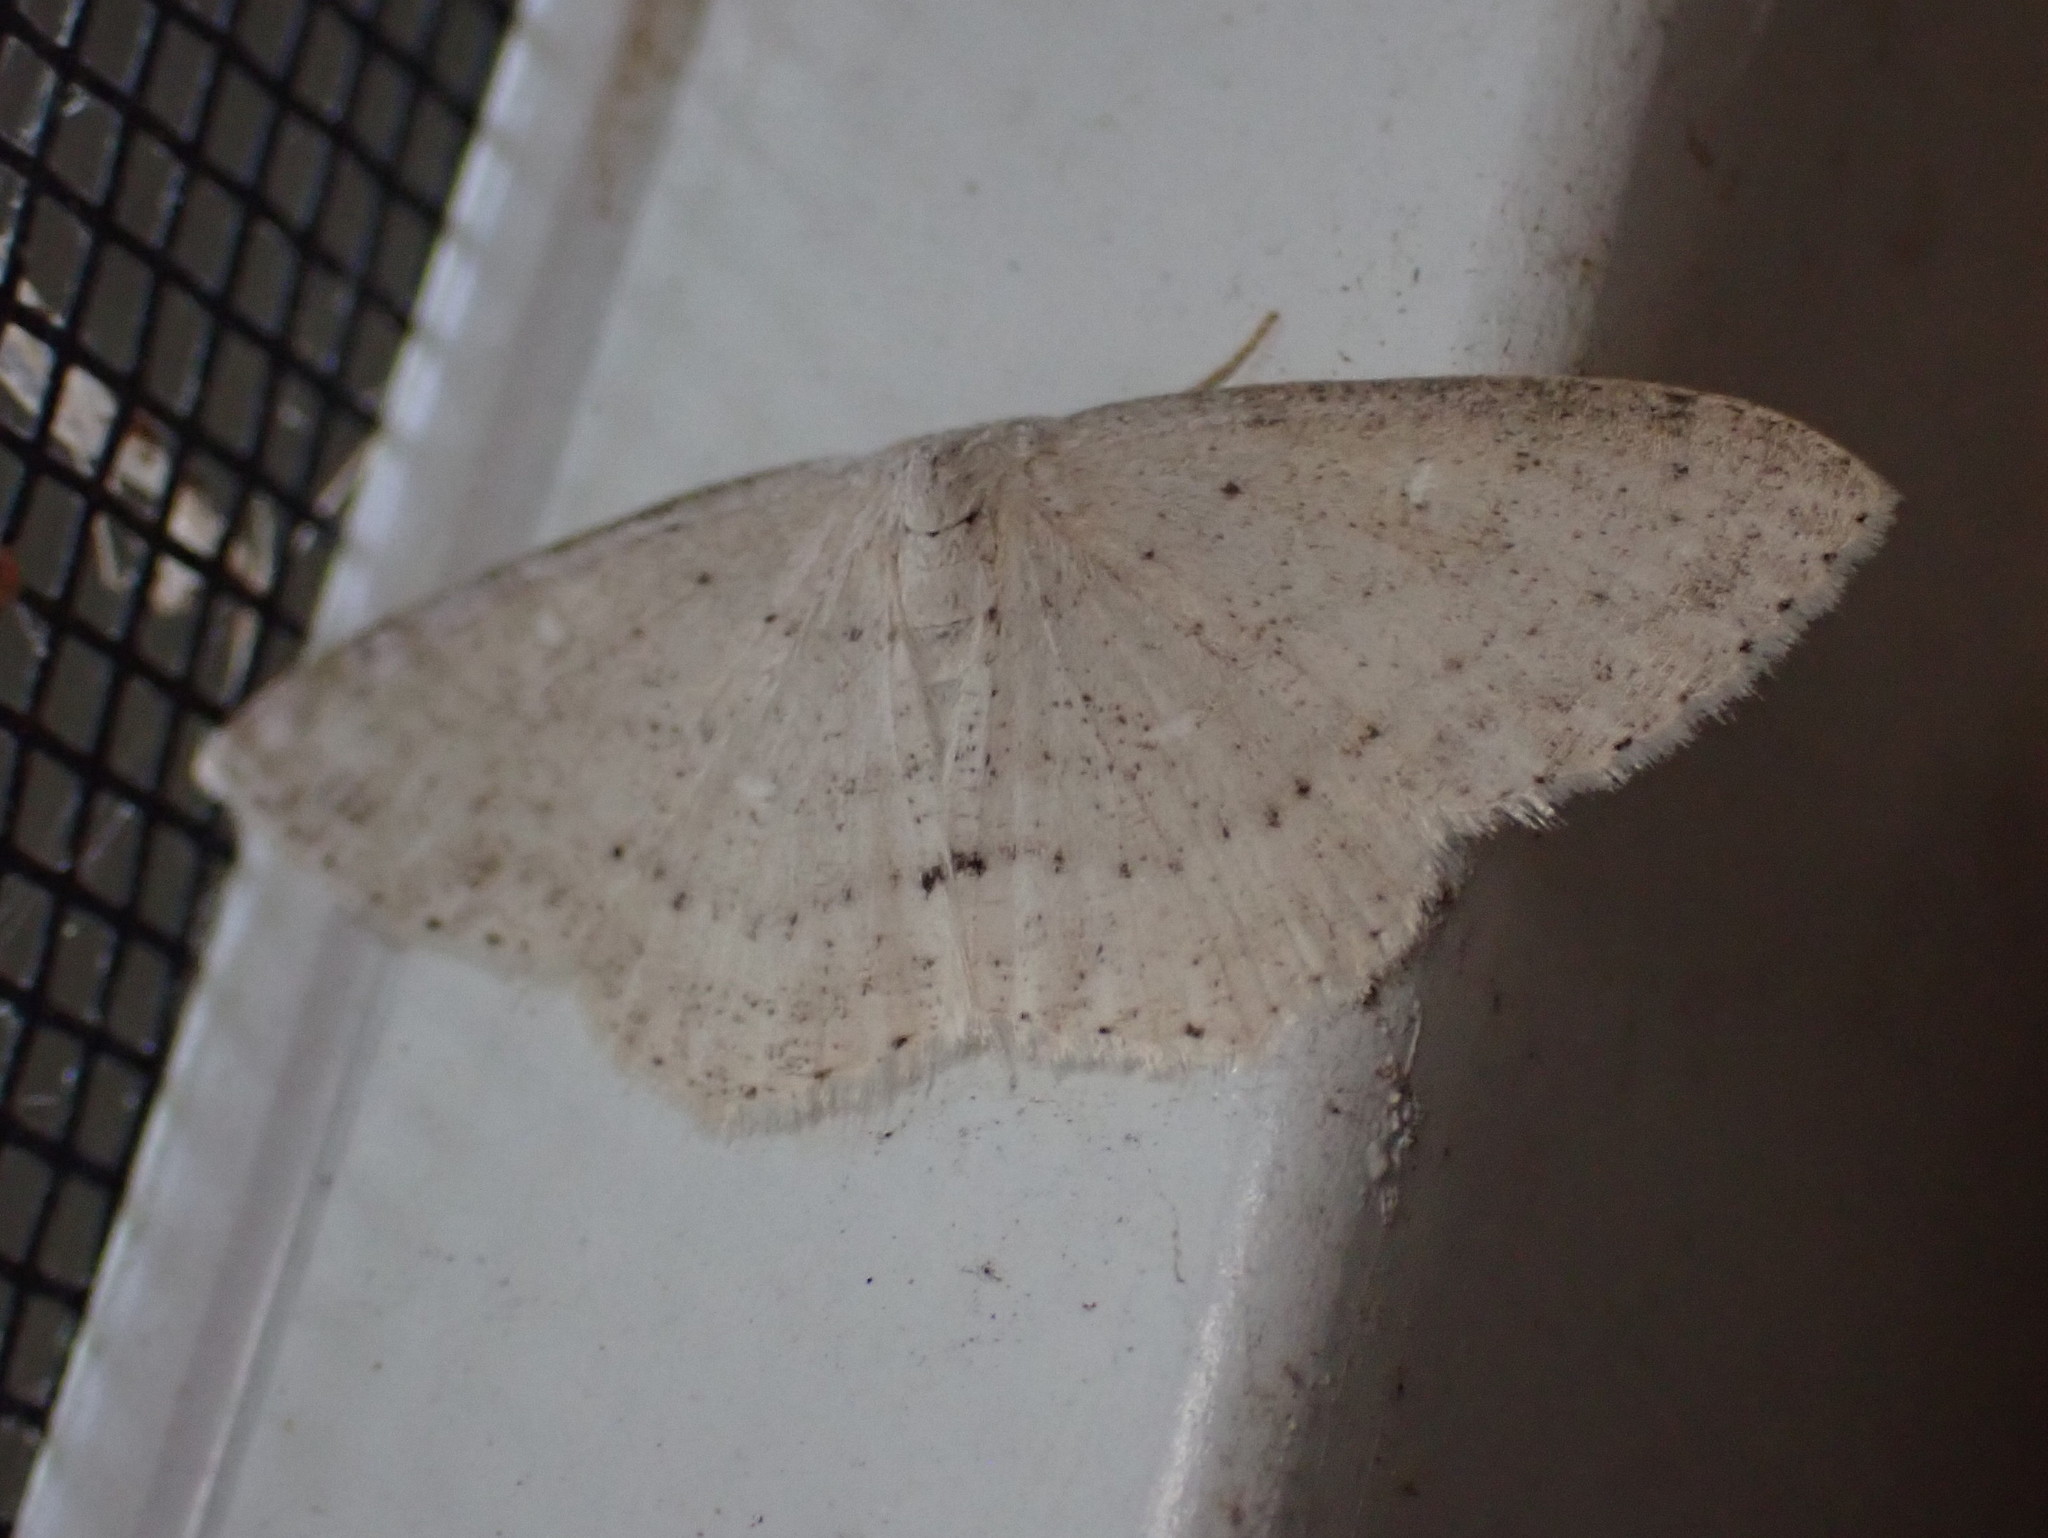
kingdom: Animalia
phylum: Arthropoda
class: Insecta
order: Lepidoptera
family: Geometridae
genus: Cyclophora
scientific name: Cyclophora pendulinaria
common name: Sweet fern geometer
